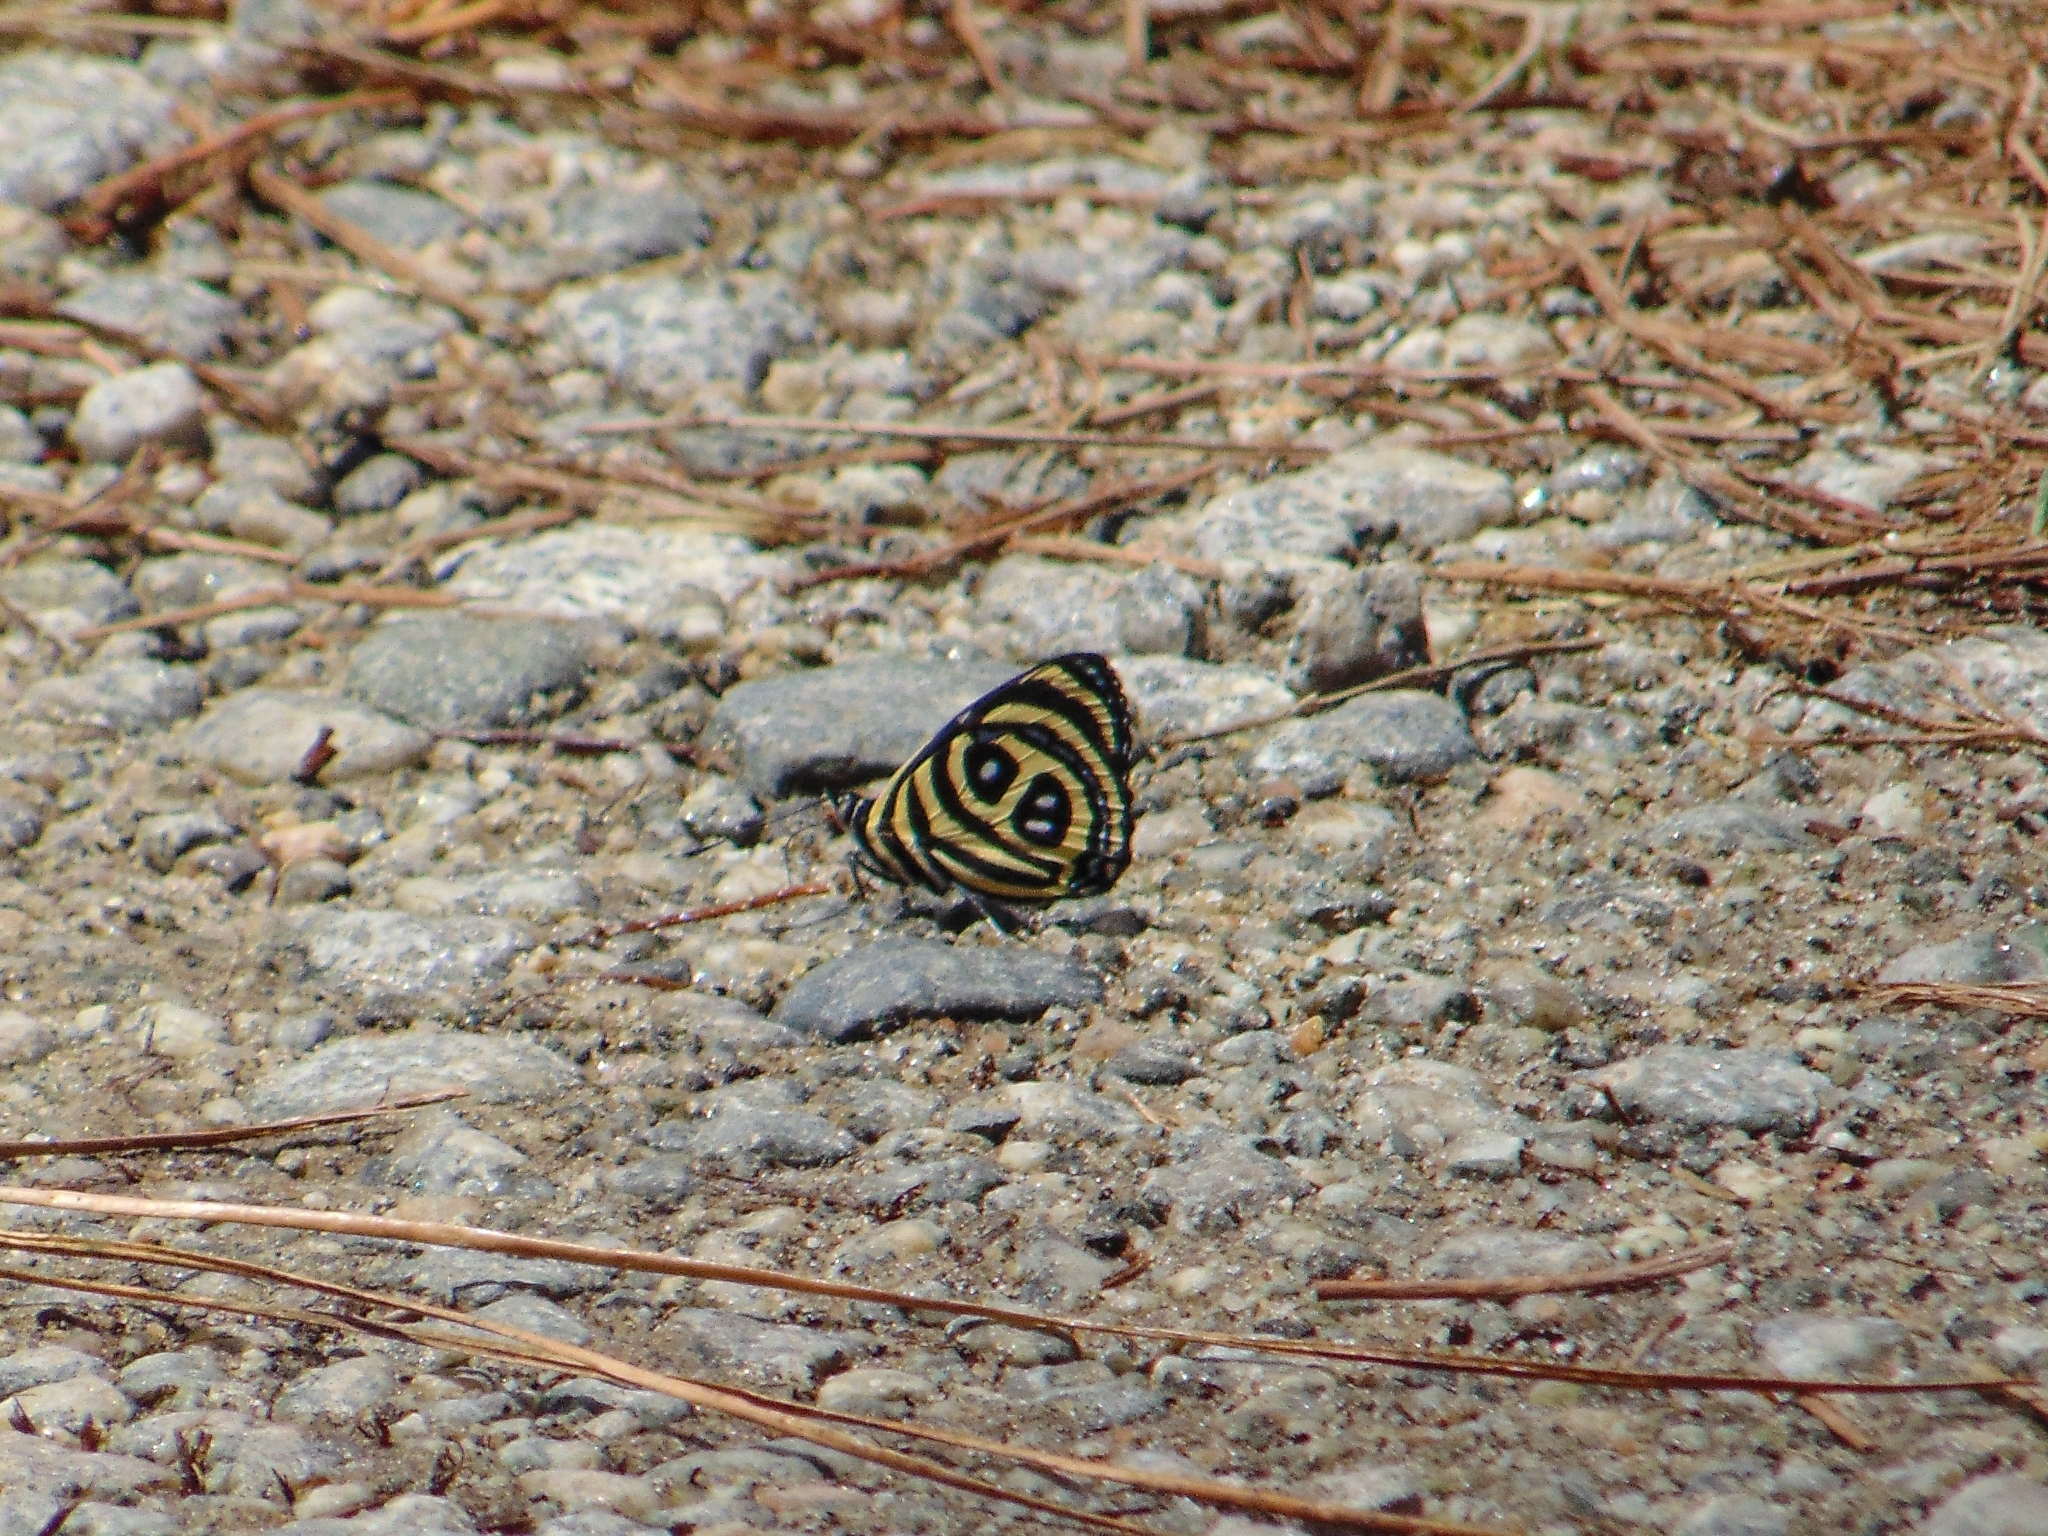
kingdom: Animalia
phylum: Arthropoda
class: Insecta
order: Lepidoptera
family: Nymphalidae
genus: Catagramma
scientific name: Catagramma pyracmon
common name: Google-eyed eighty-eight
